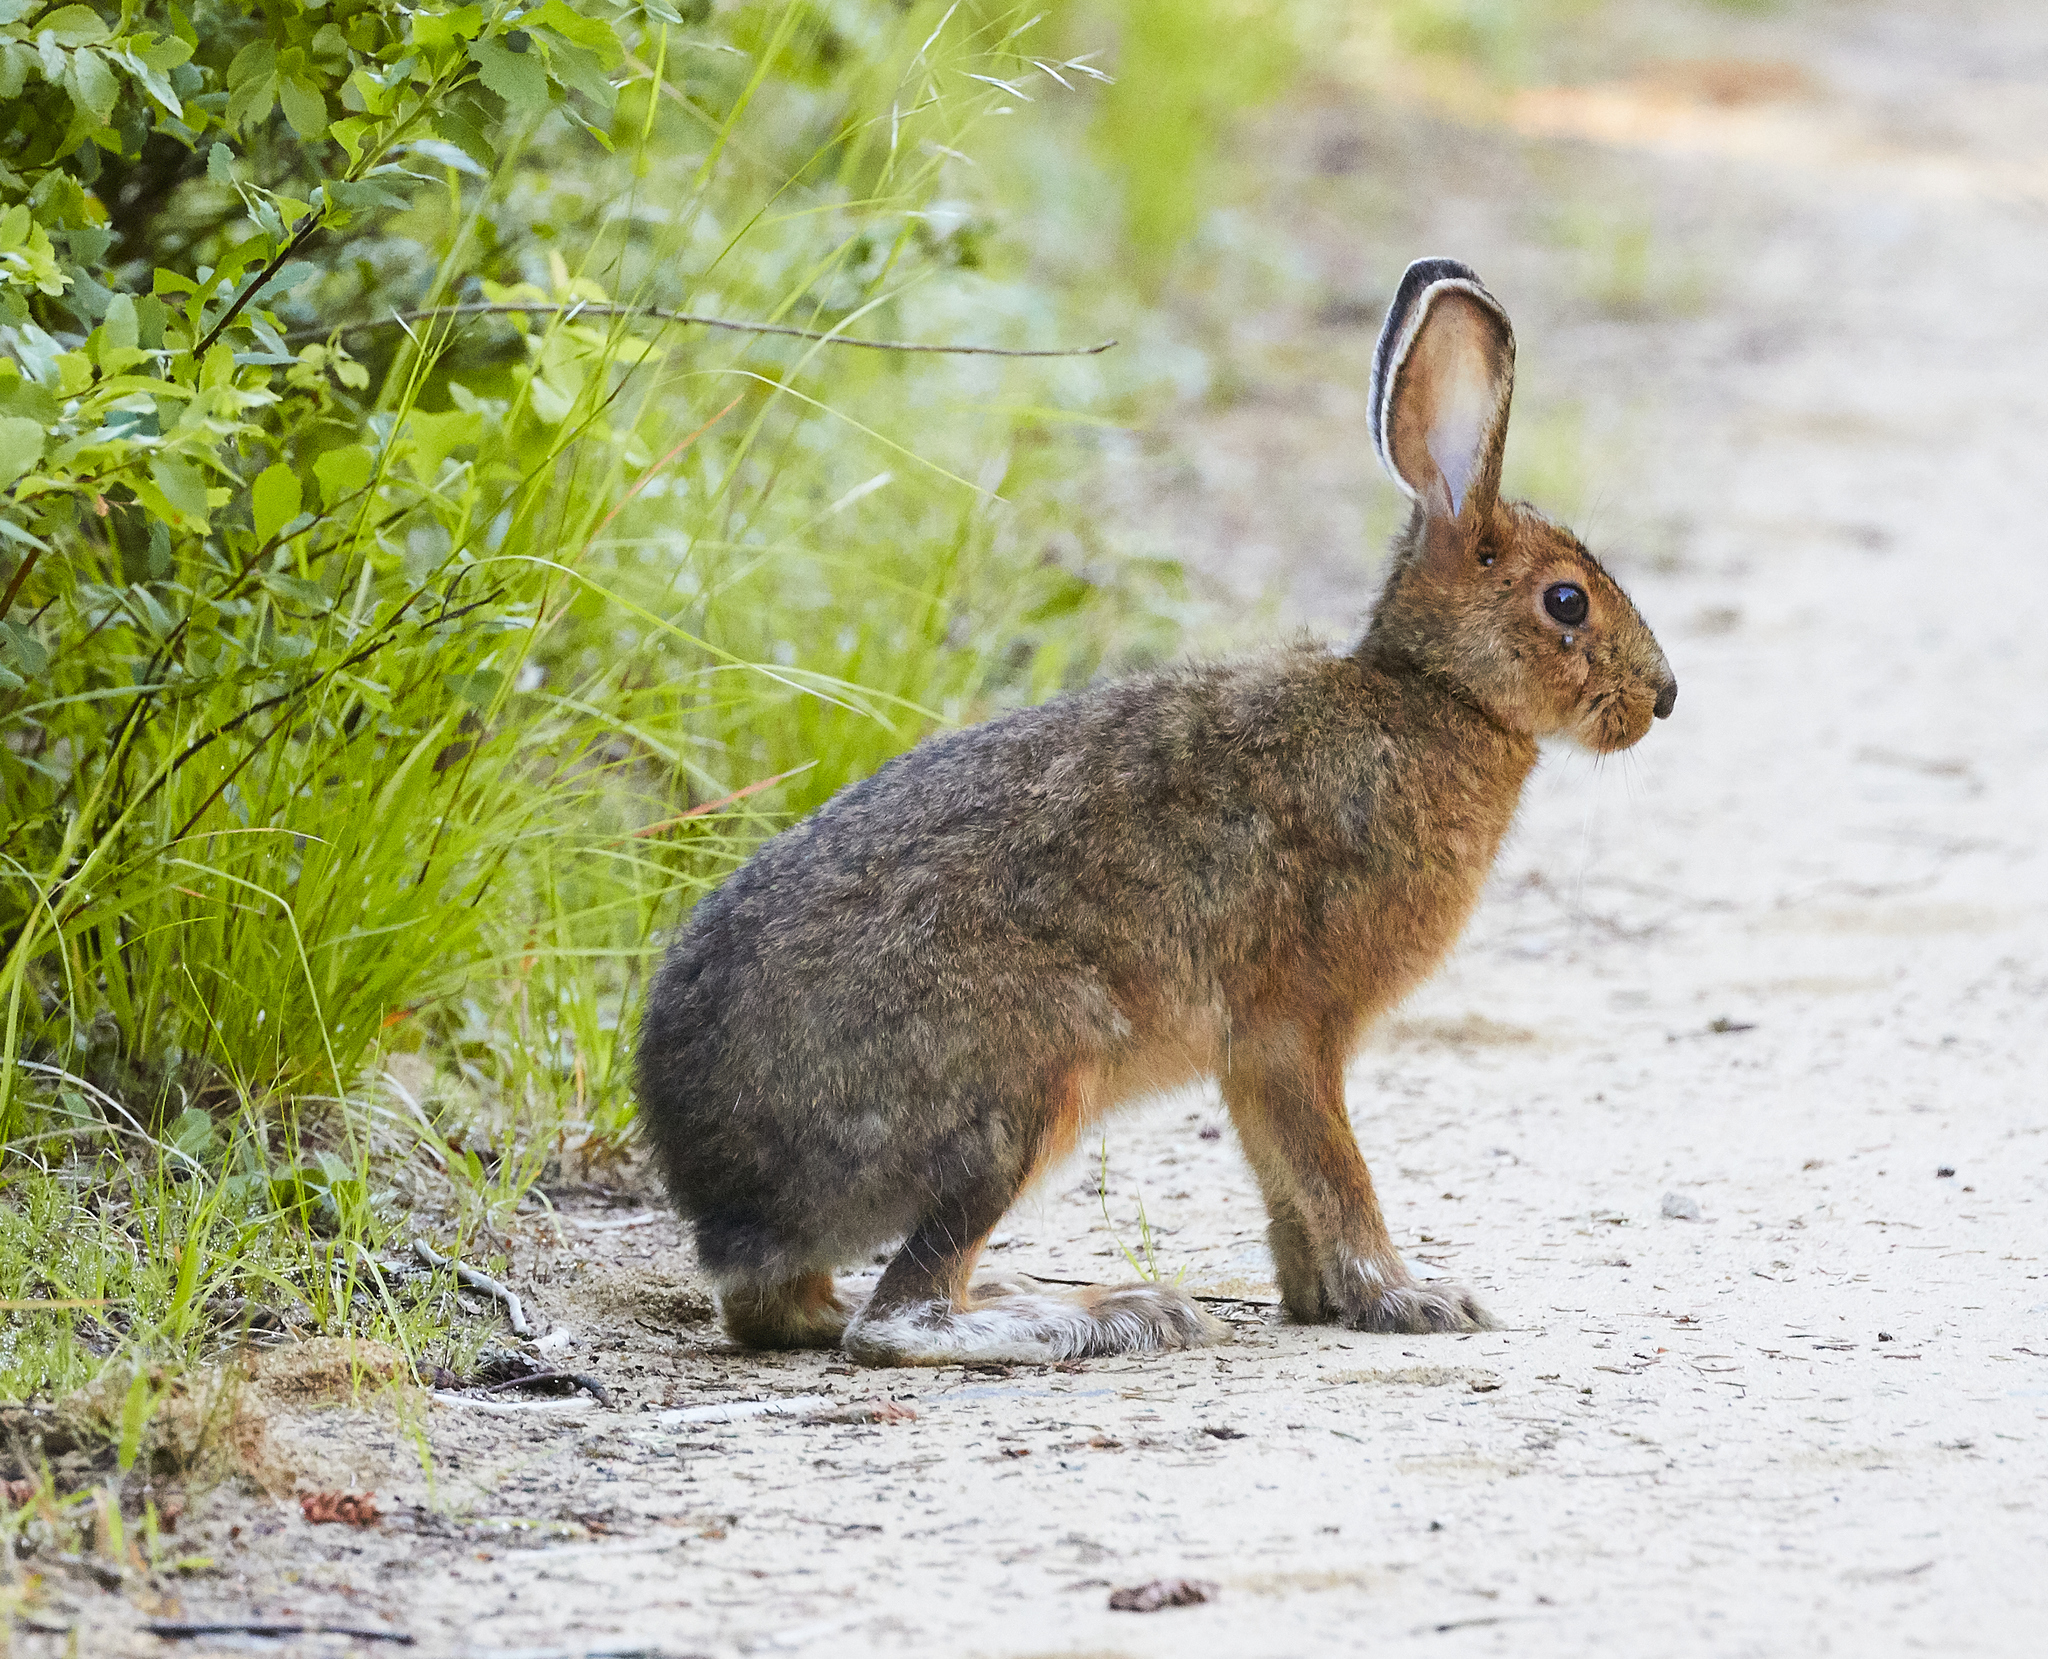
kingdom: Animalia
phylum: Chordata
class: Mammalia
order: Lagomorpha
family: Leporidae
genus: Lepus
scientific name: Lepus americanus
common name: Snowshoe hare
